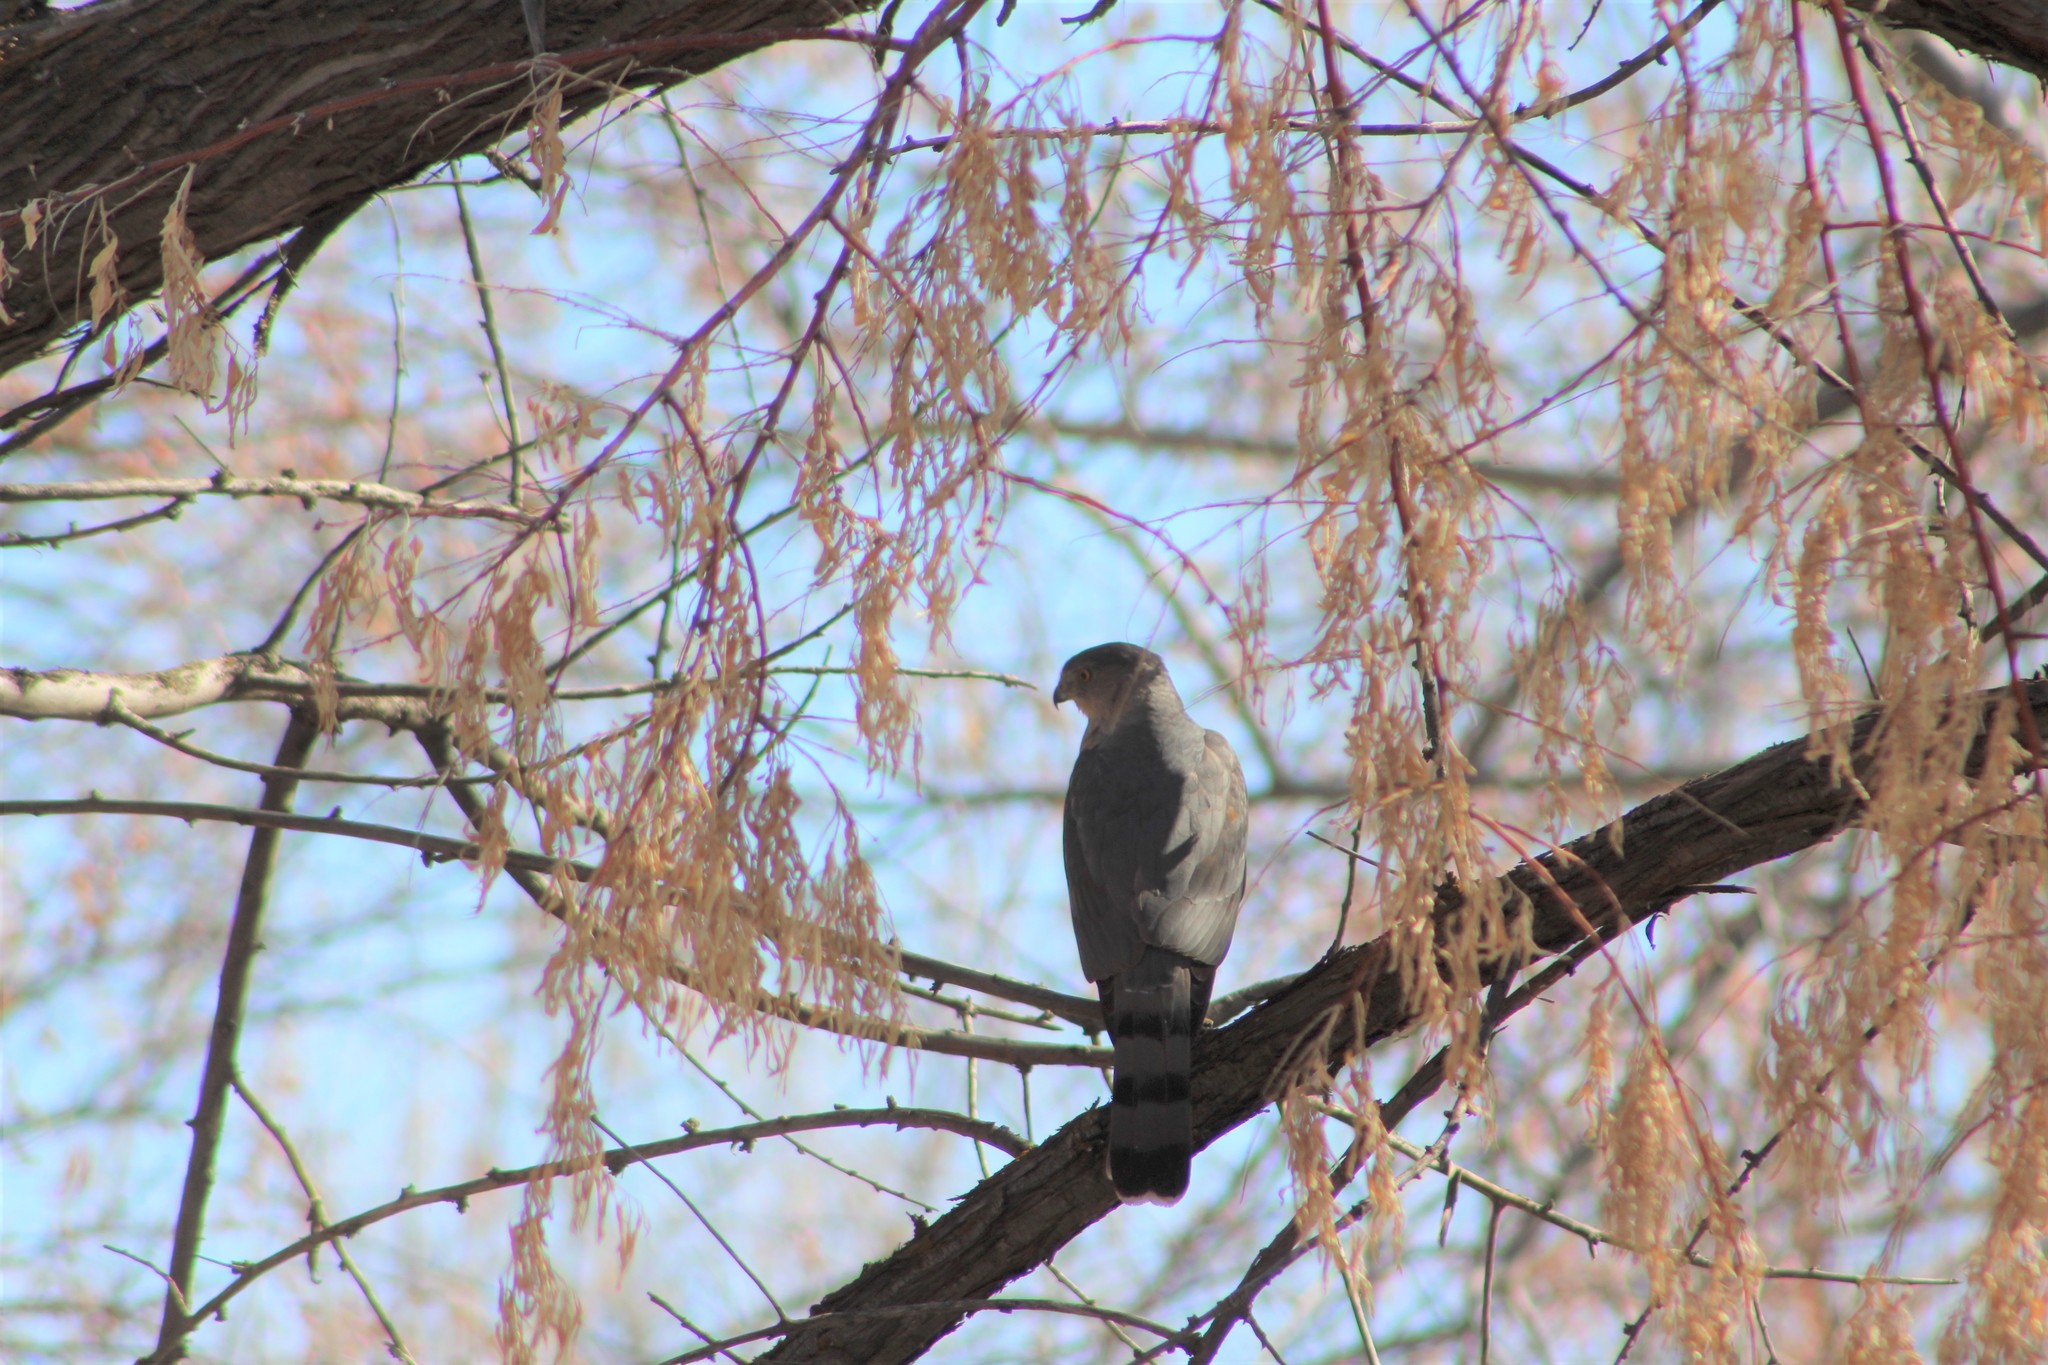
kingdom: Animalia
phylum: Chordata
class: Aves
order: Accipitriformes
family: Accipitridae
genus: Accipiter
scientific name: Accipiter cooperii
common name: Cooper's hawk
